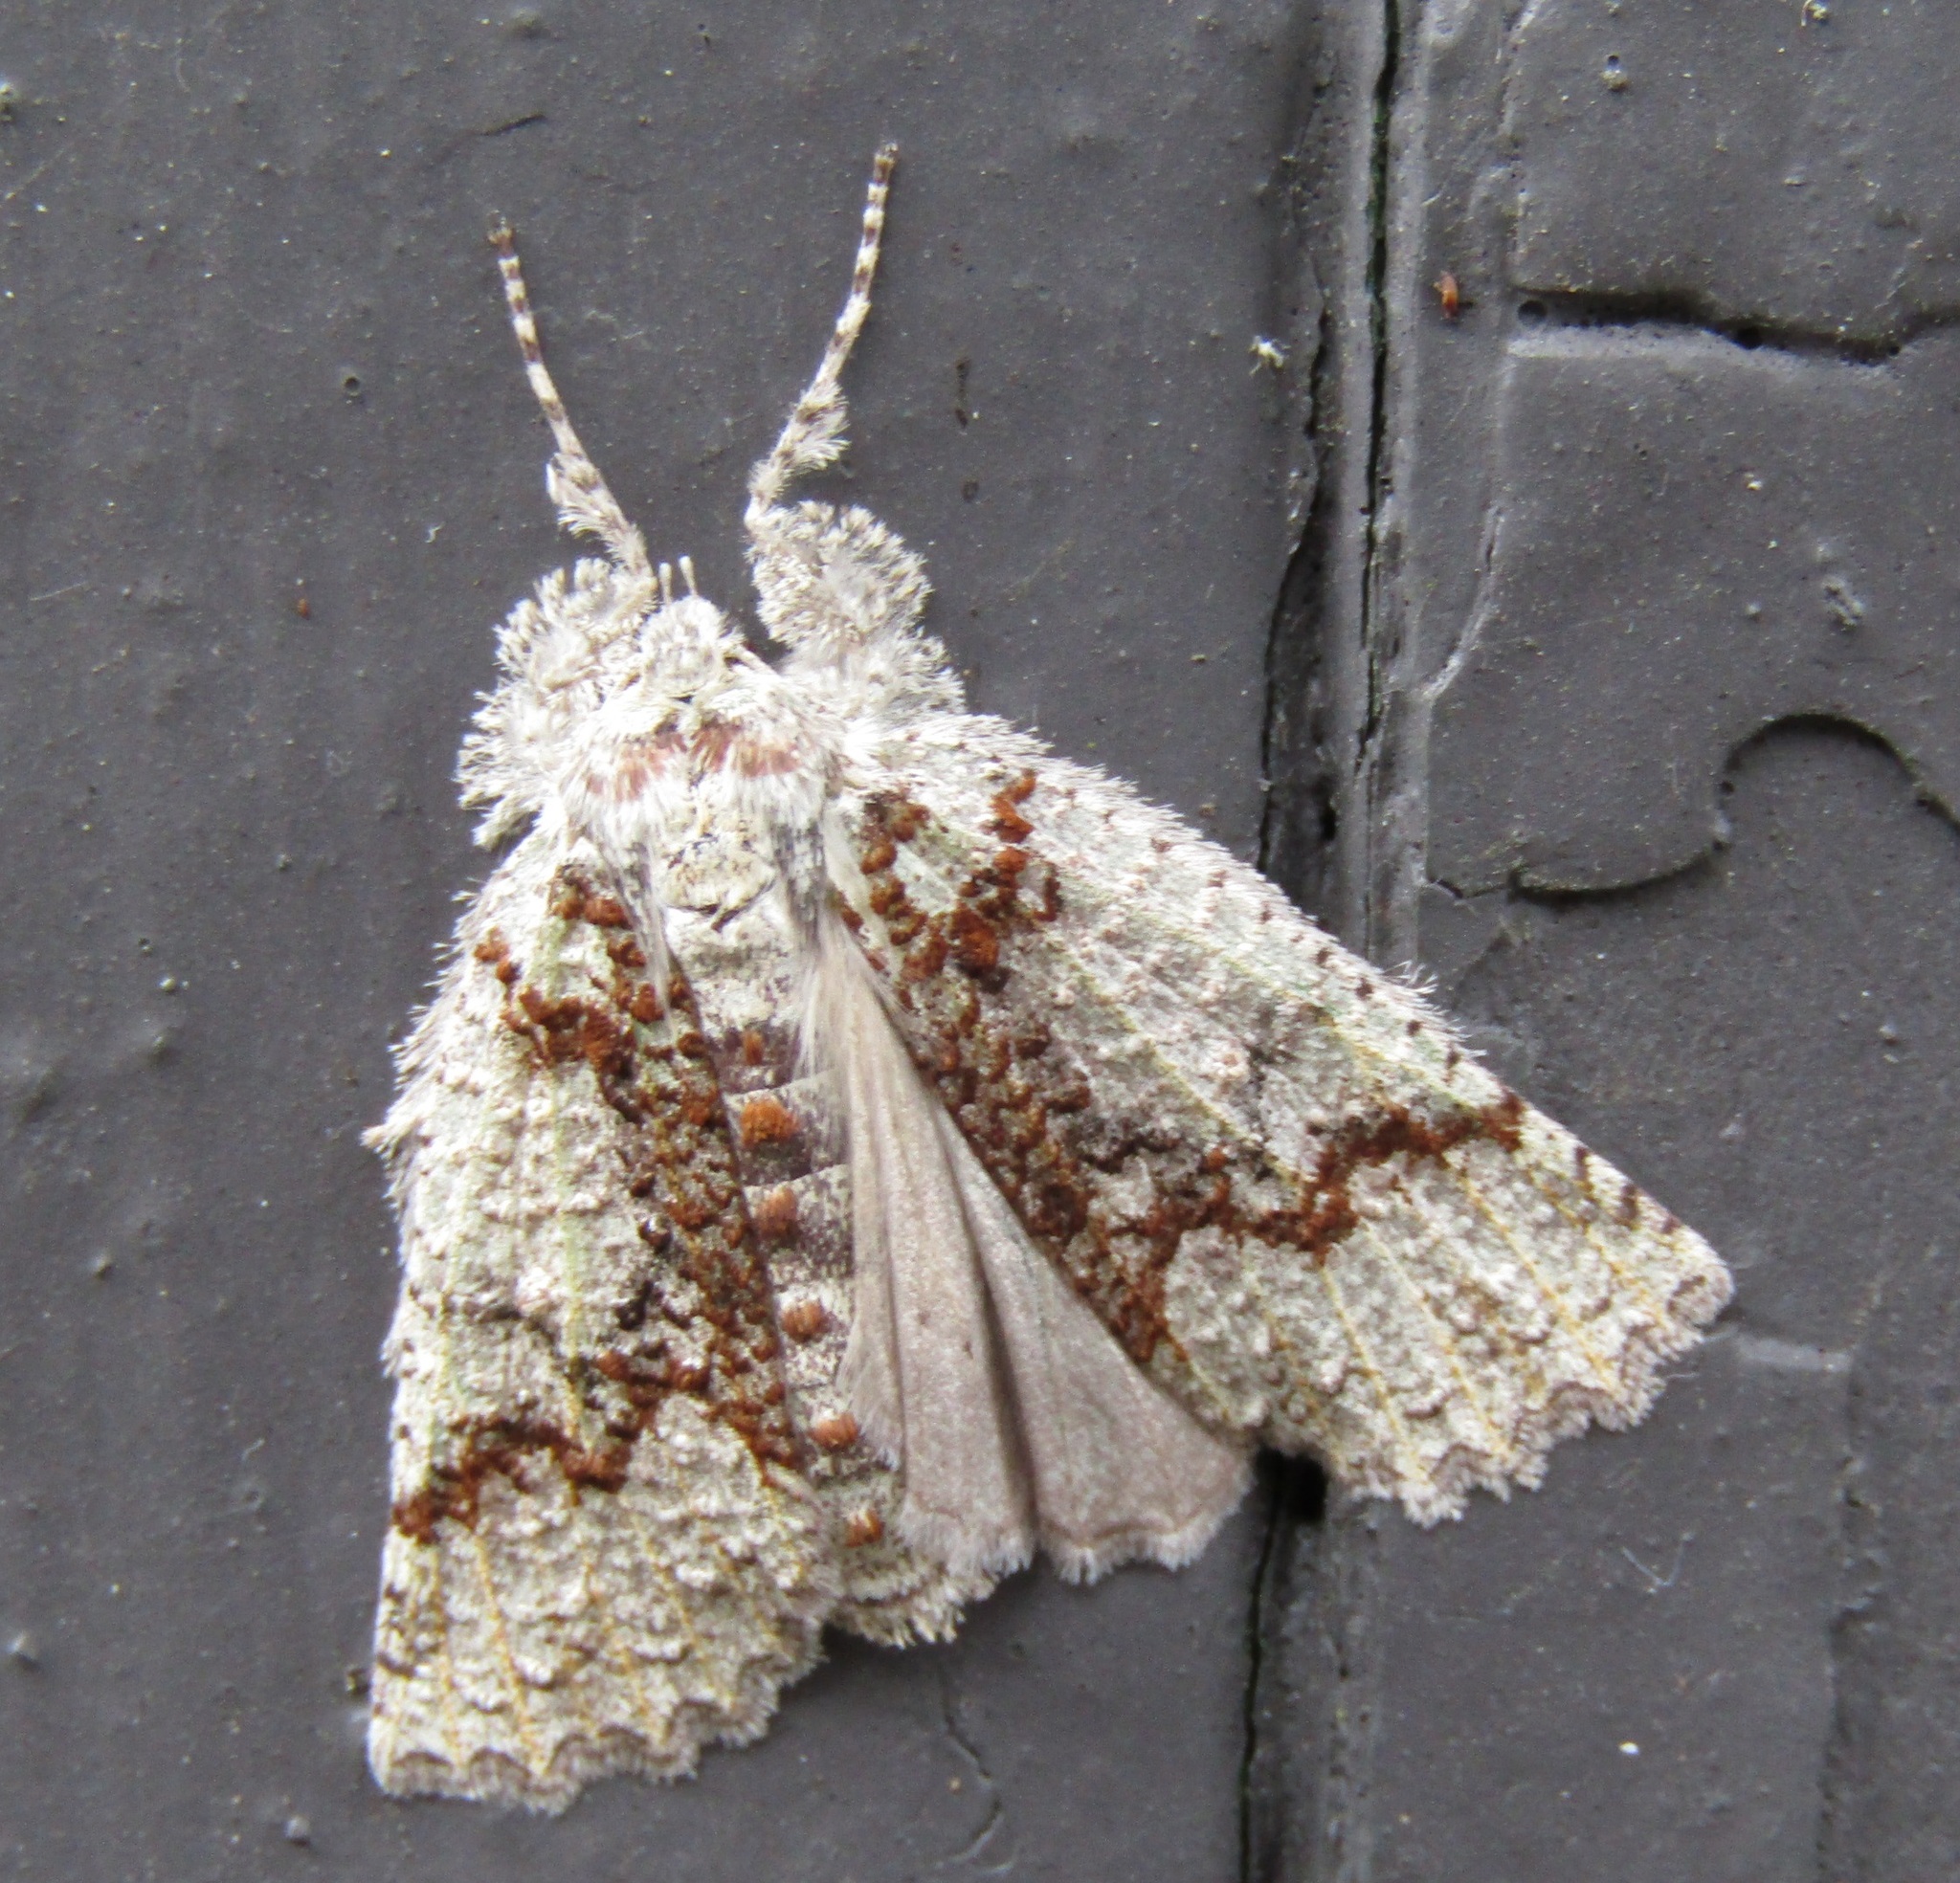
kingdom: Animalia
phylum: Arthropoda
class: Insecta
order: Lepidoptera
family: Geometridae
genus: Declana
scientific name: Declana floccosa
